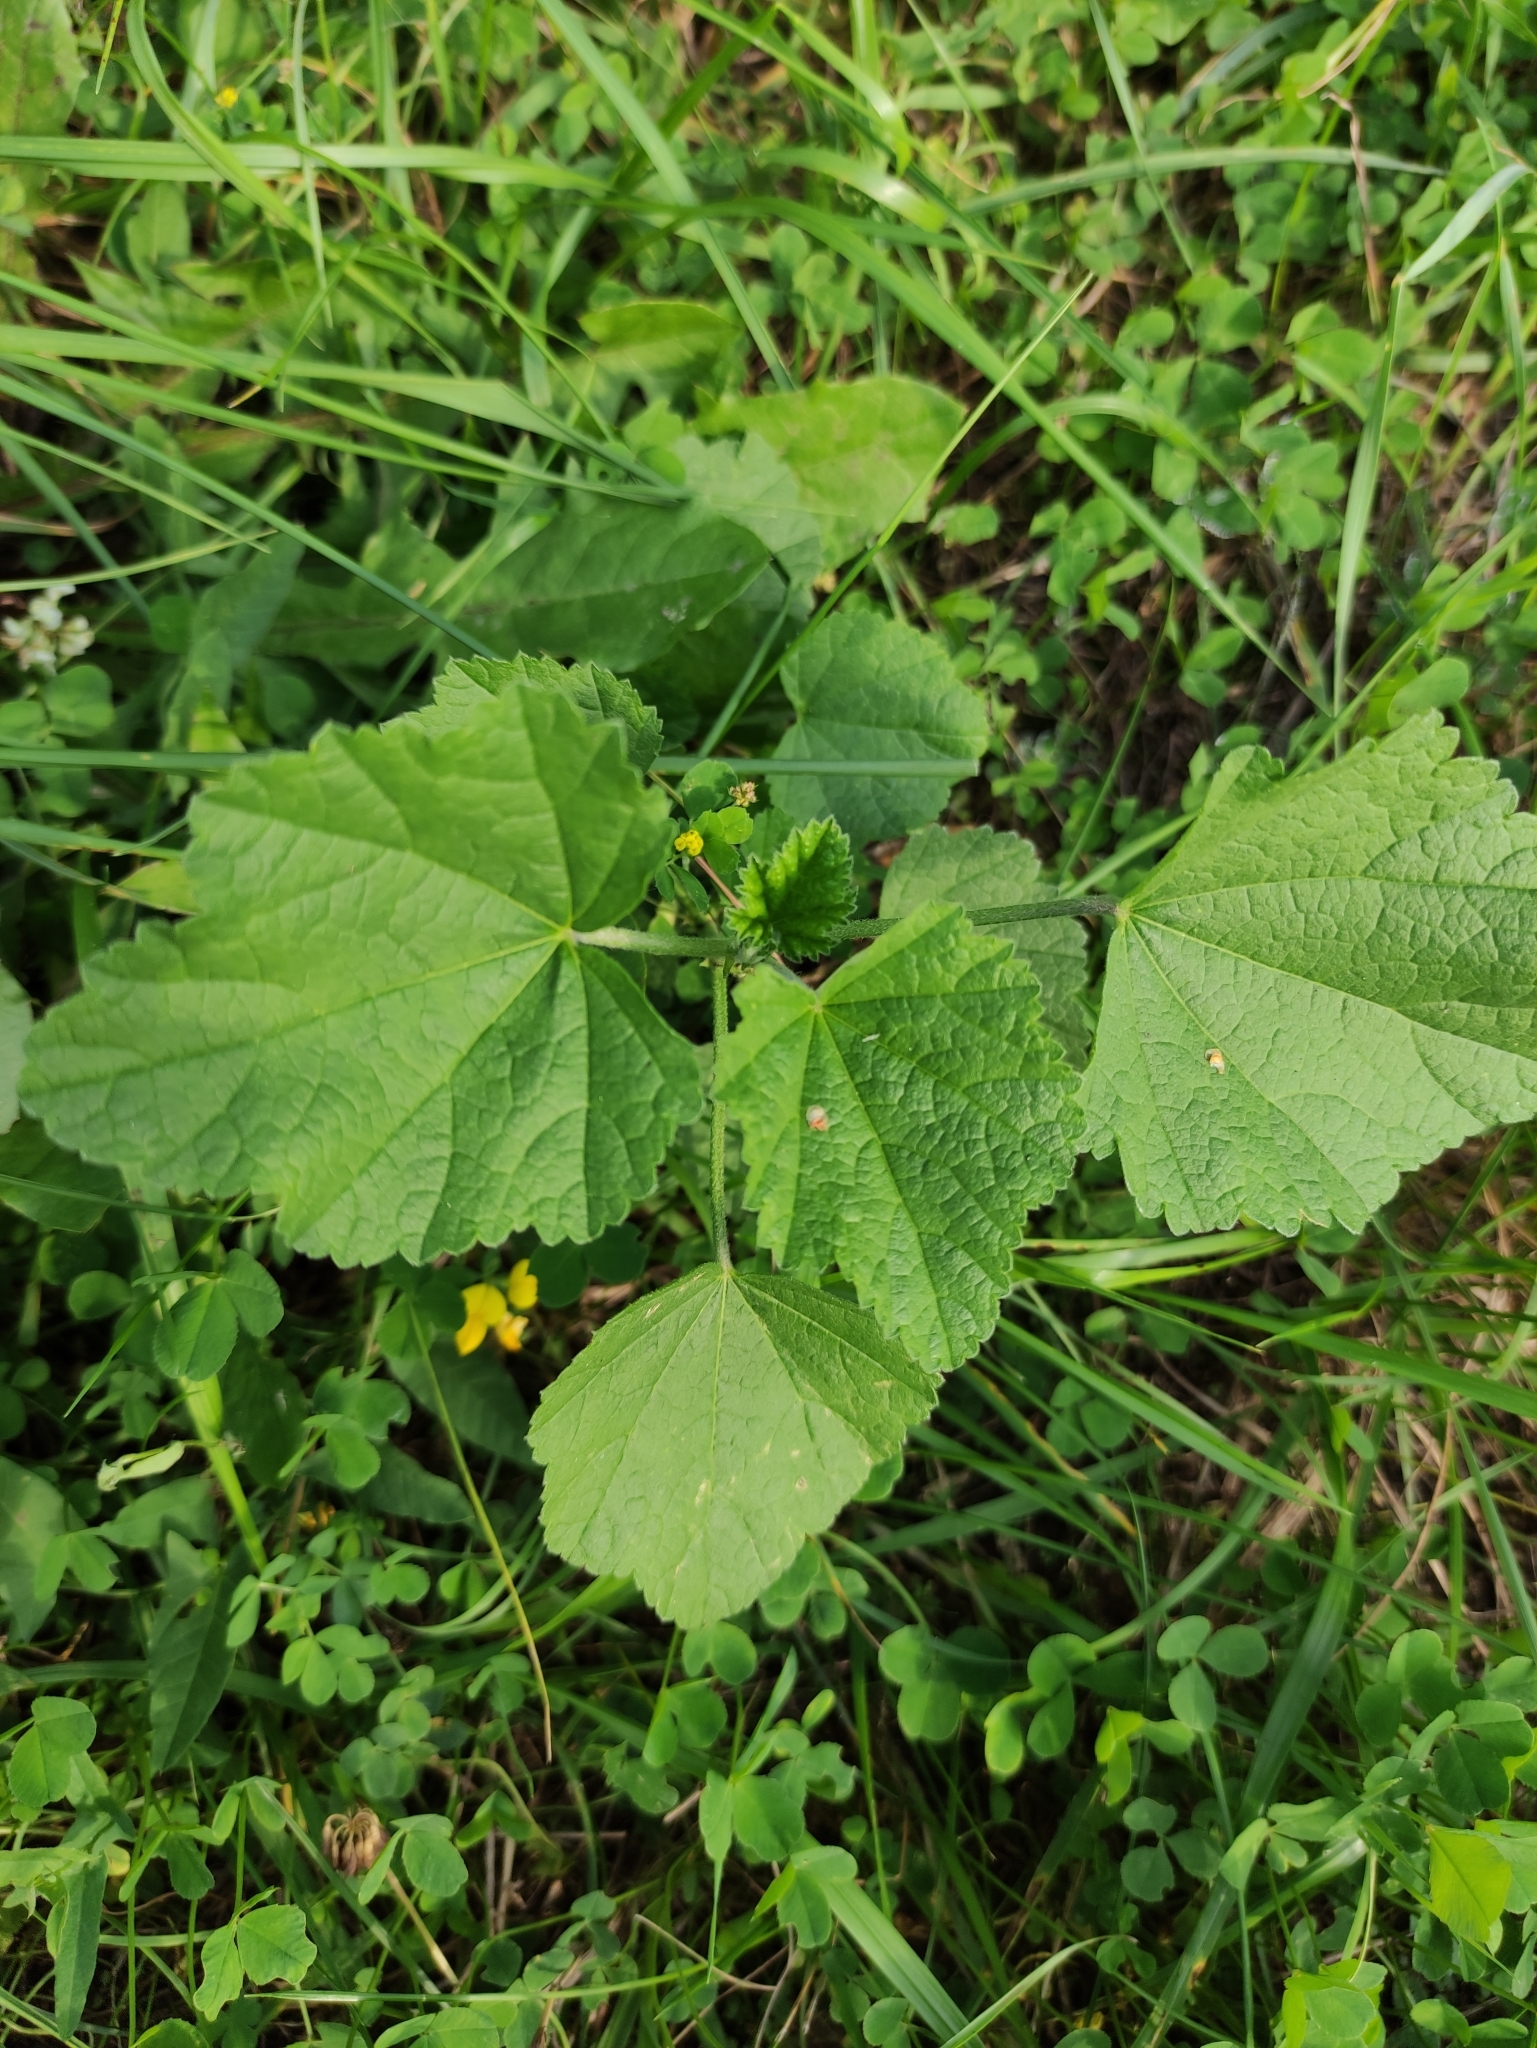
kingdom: Plantae
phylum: Tracheophyta
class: Magnoliopsida
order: Malvales
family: Malvaceae
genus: Malva
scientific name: Malva thuringiaca
